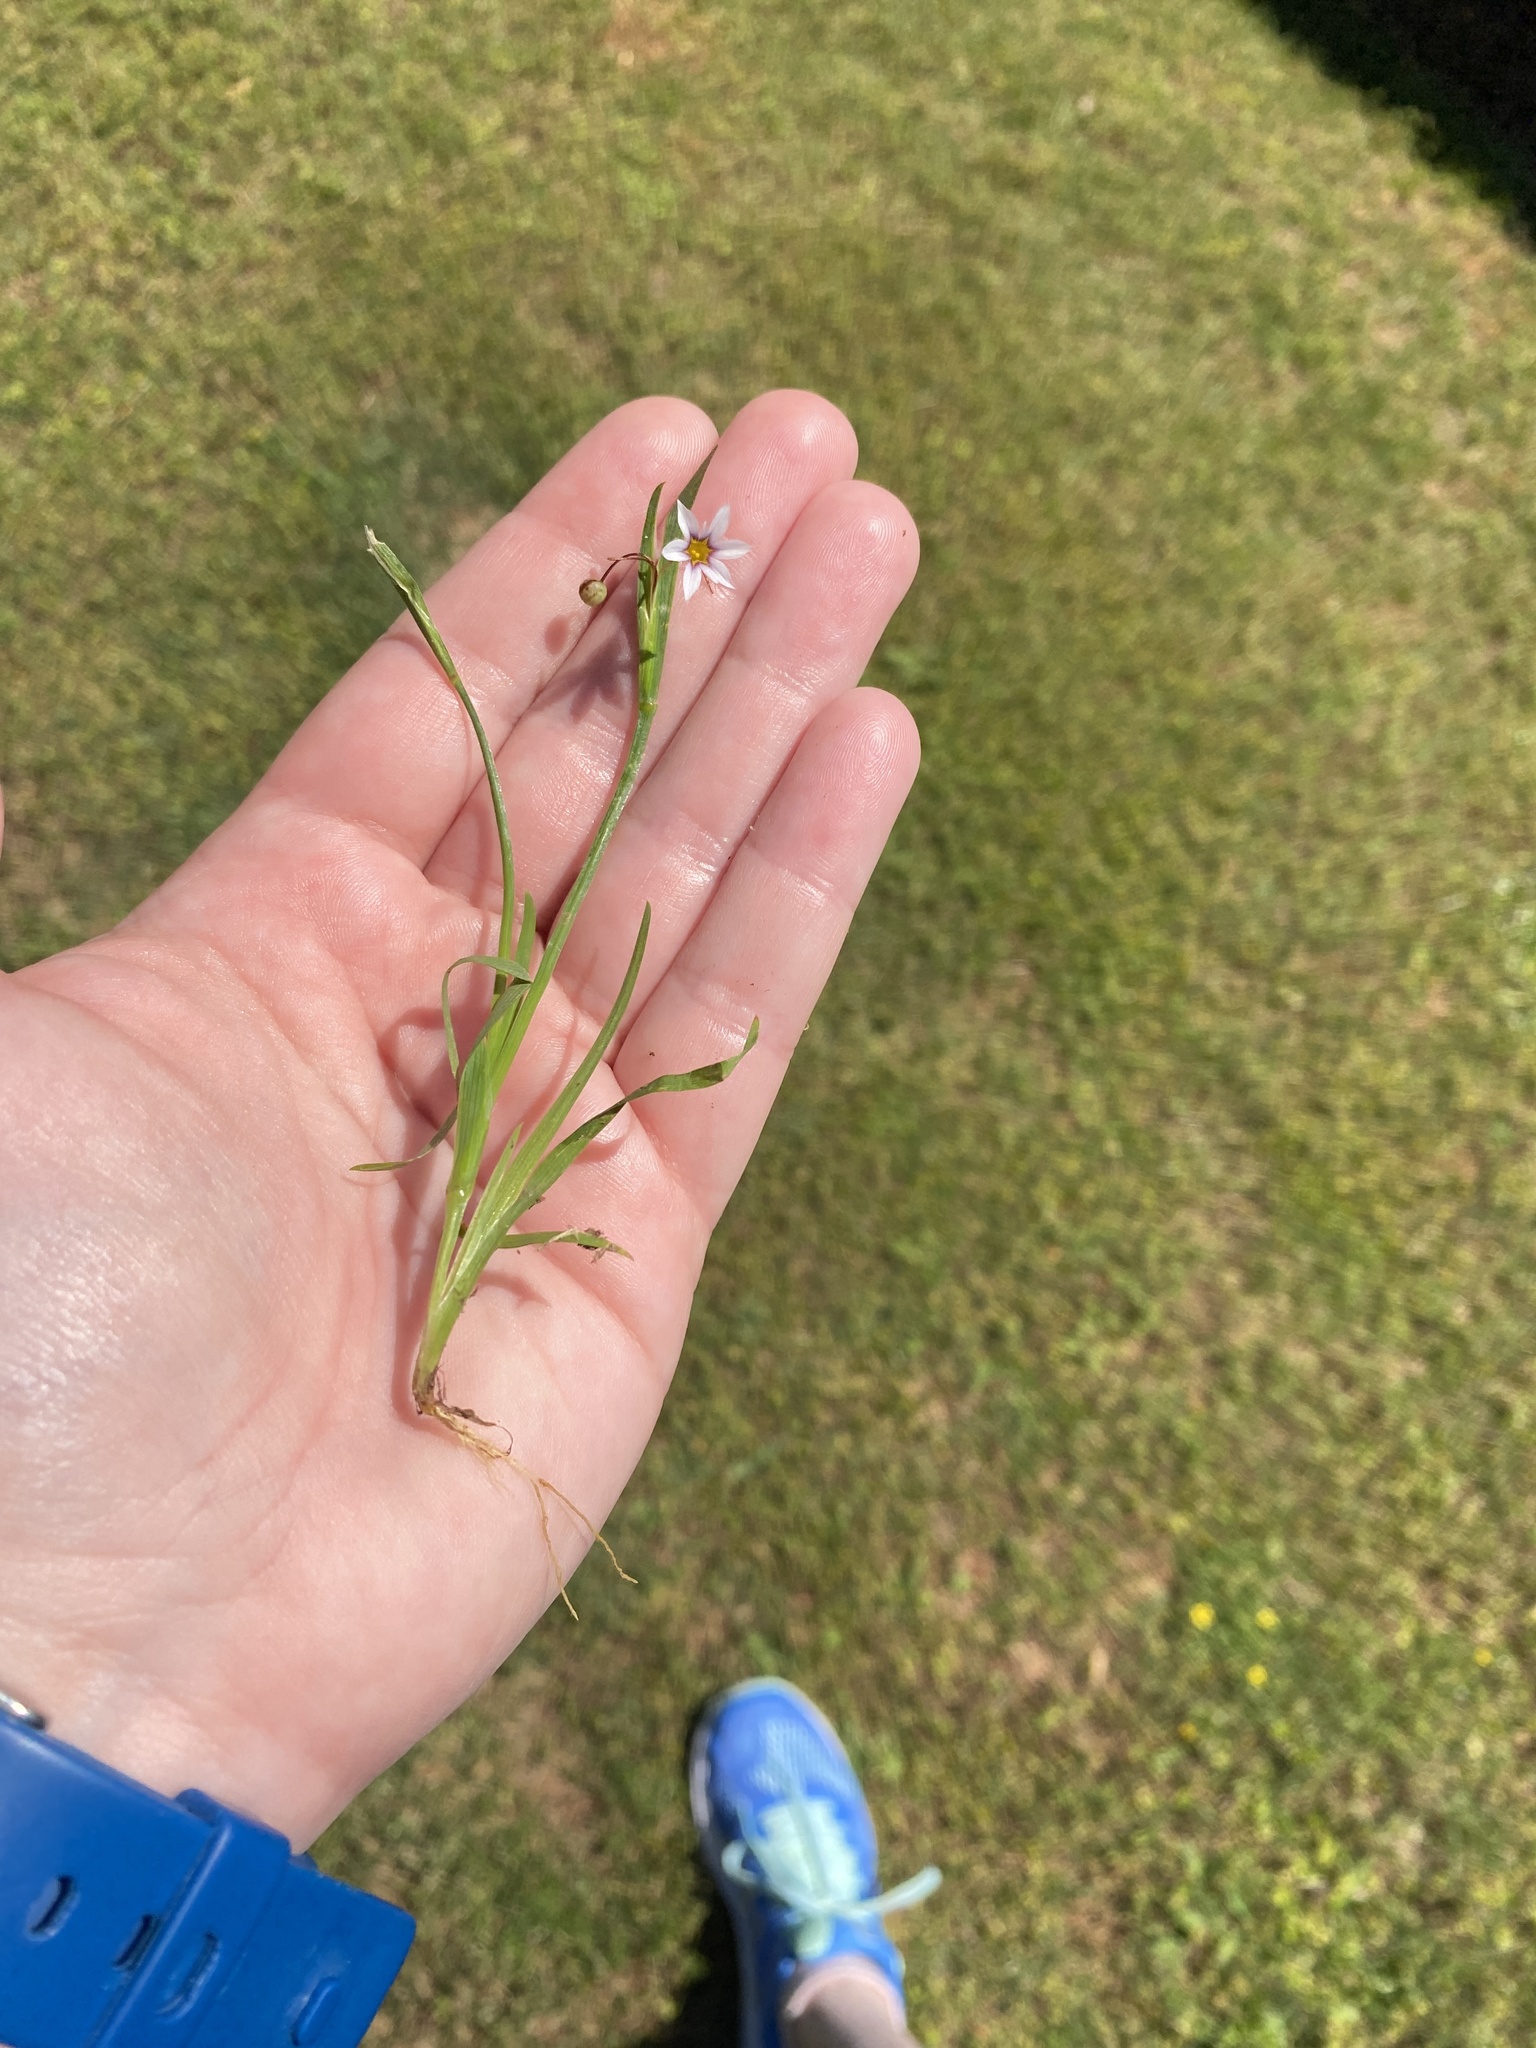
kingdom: Plantae
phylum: Tracheophyta
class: Liliopsida
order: Asparagales
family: Iridaceae
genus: Sisyrinchium
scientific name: Sisyrinchium micranthum
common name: Bermuda pigroot
